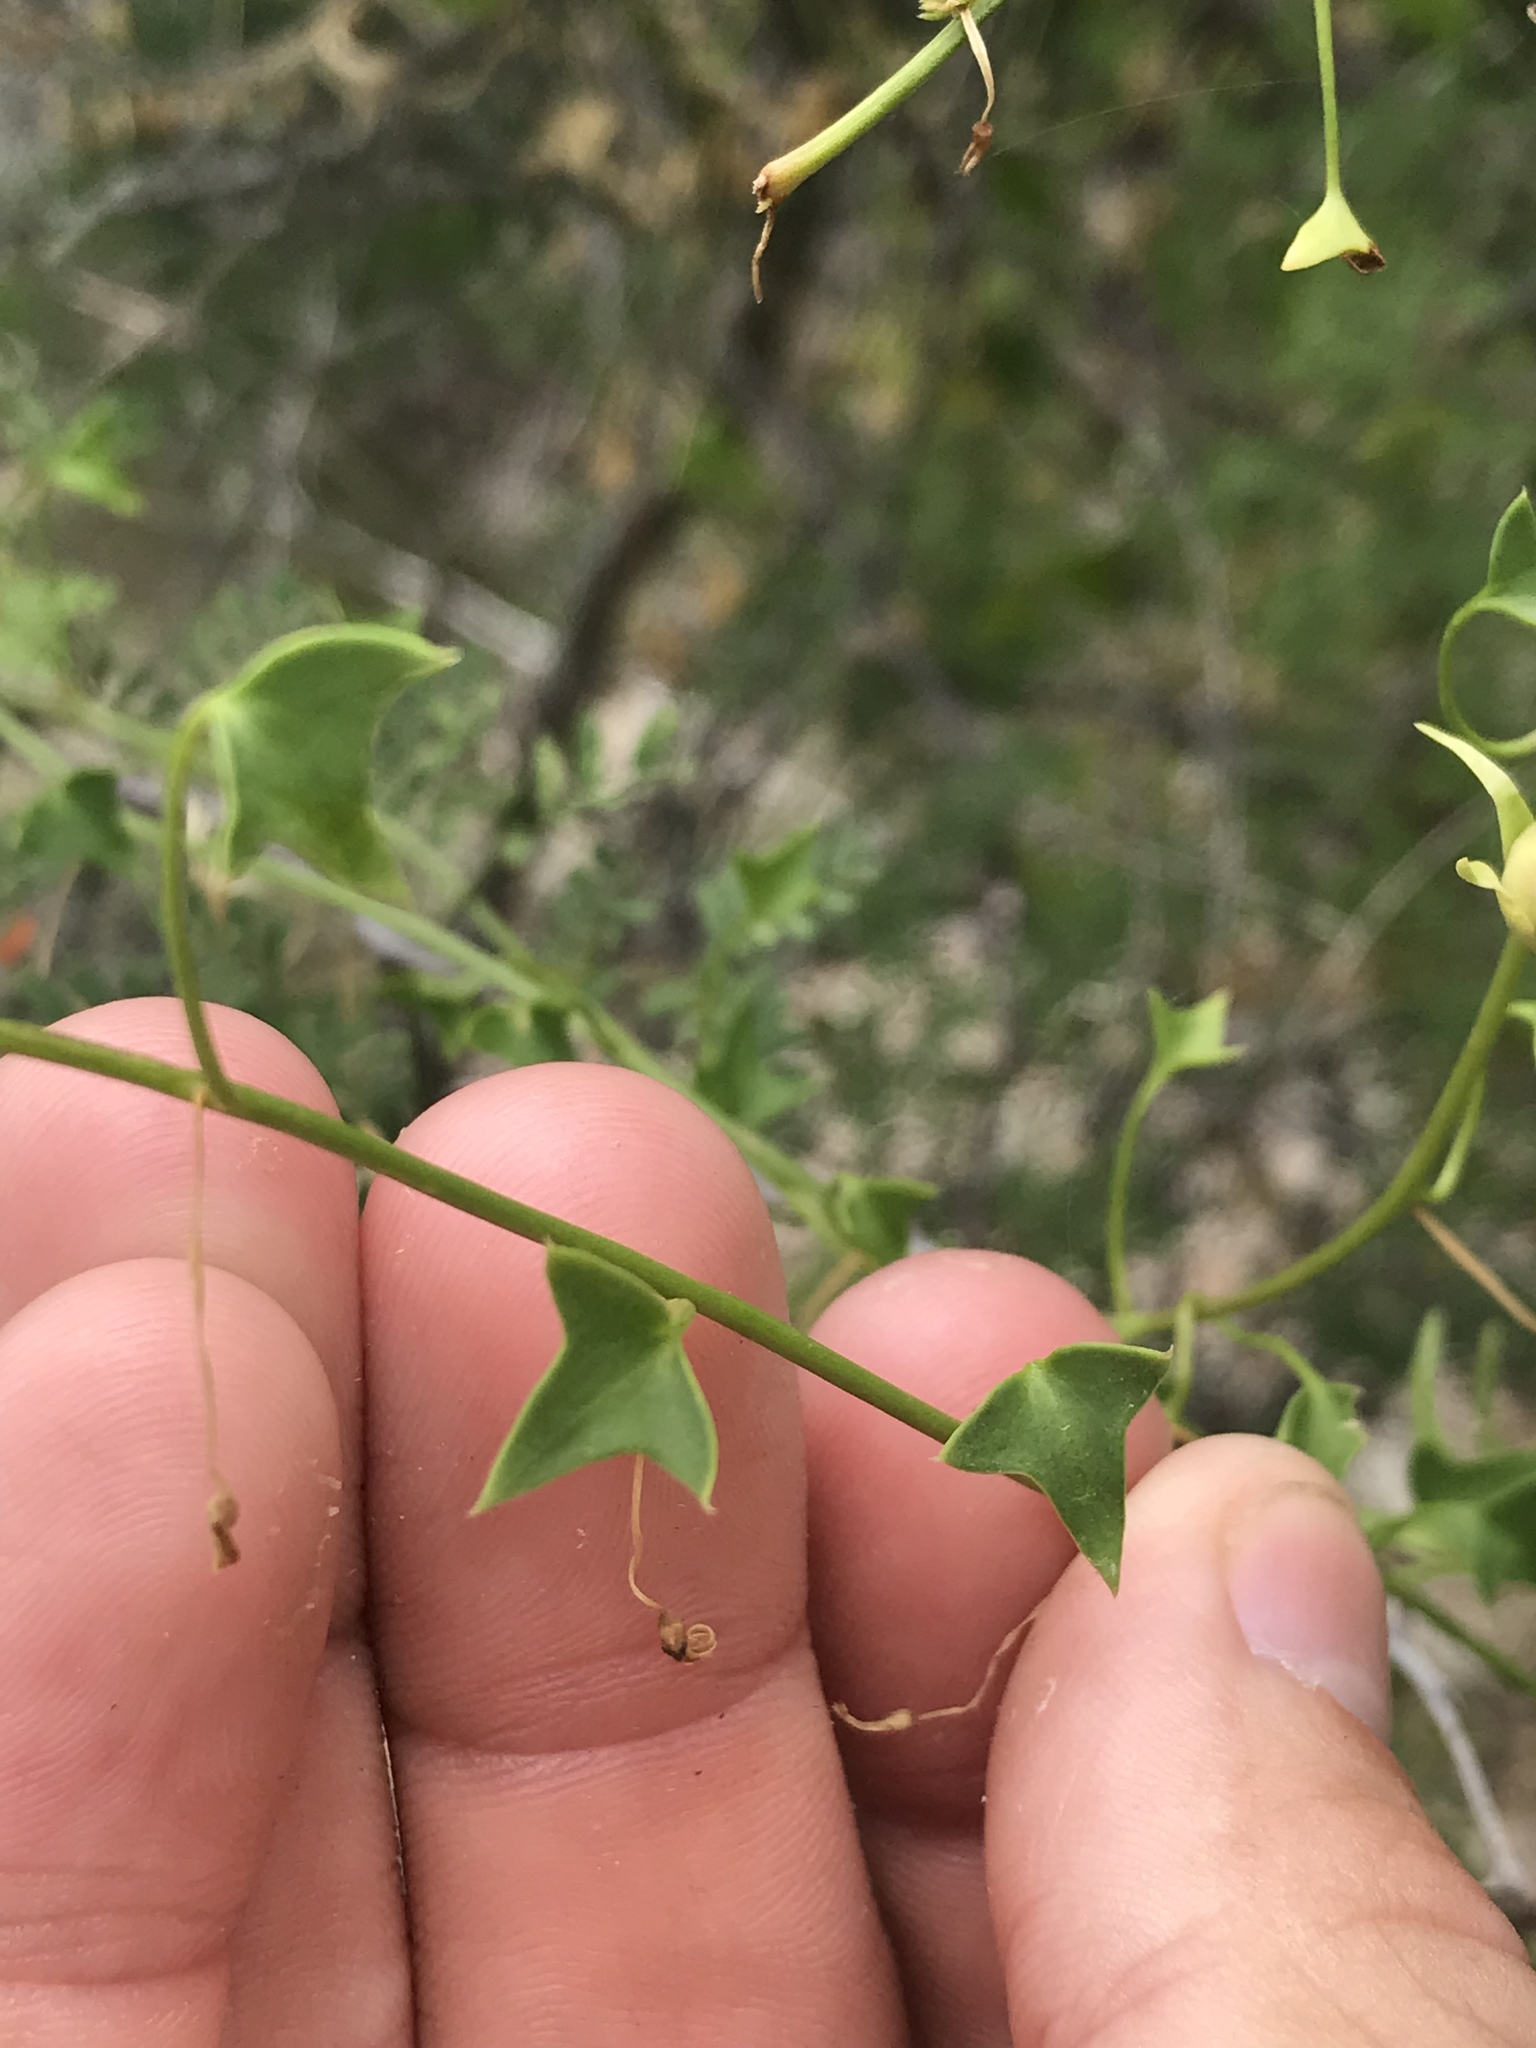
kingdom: Plantae
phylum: Tracheophyta
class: Magnoliopsida
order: Lamiales
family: Plantaginaceae
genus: Maurandella
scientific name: Maurandella antirrhiniflora
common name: Violet twining-snapdragon
